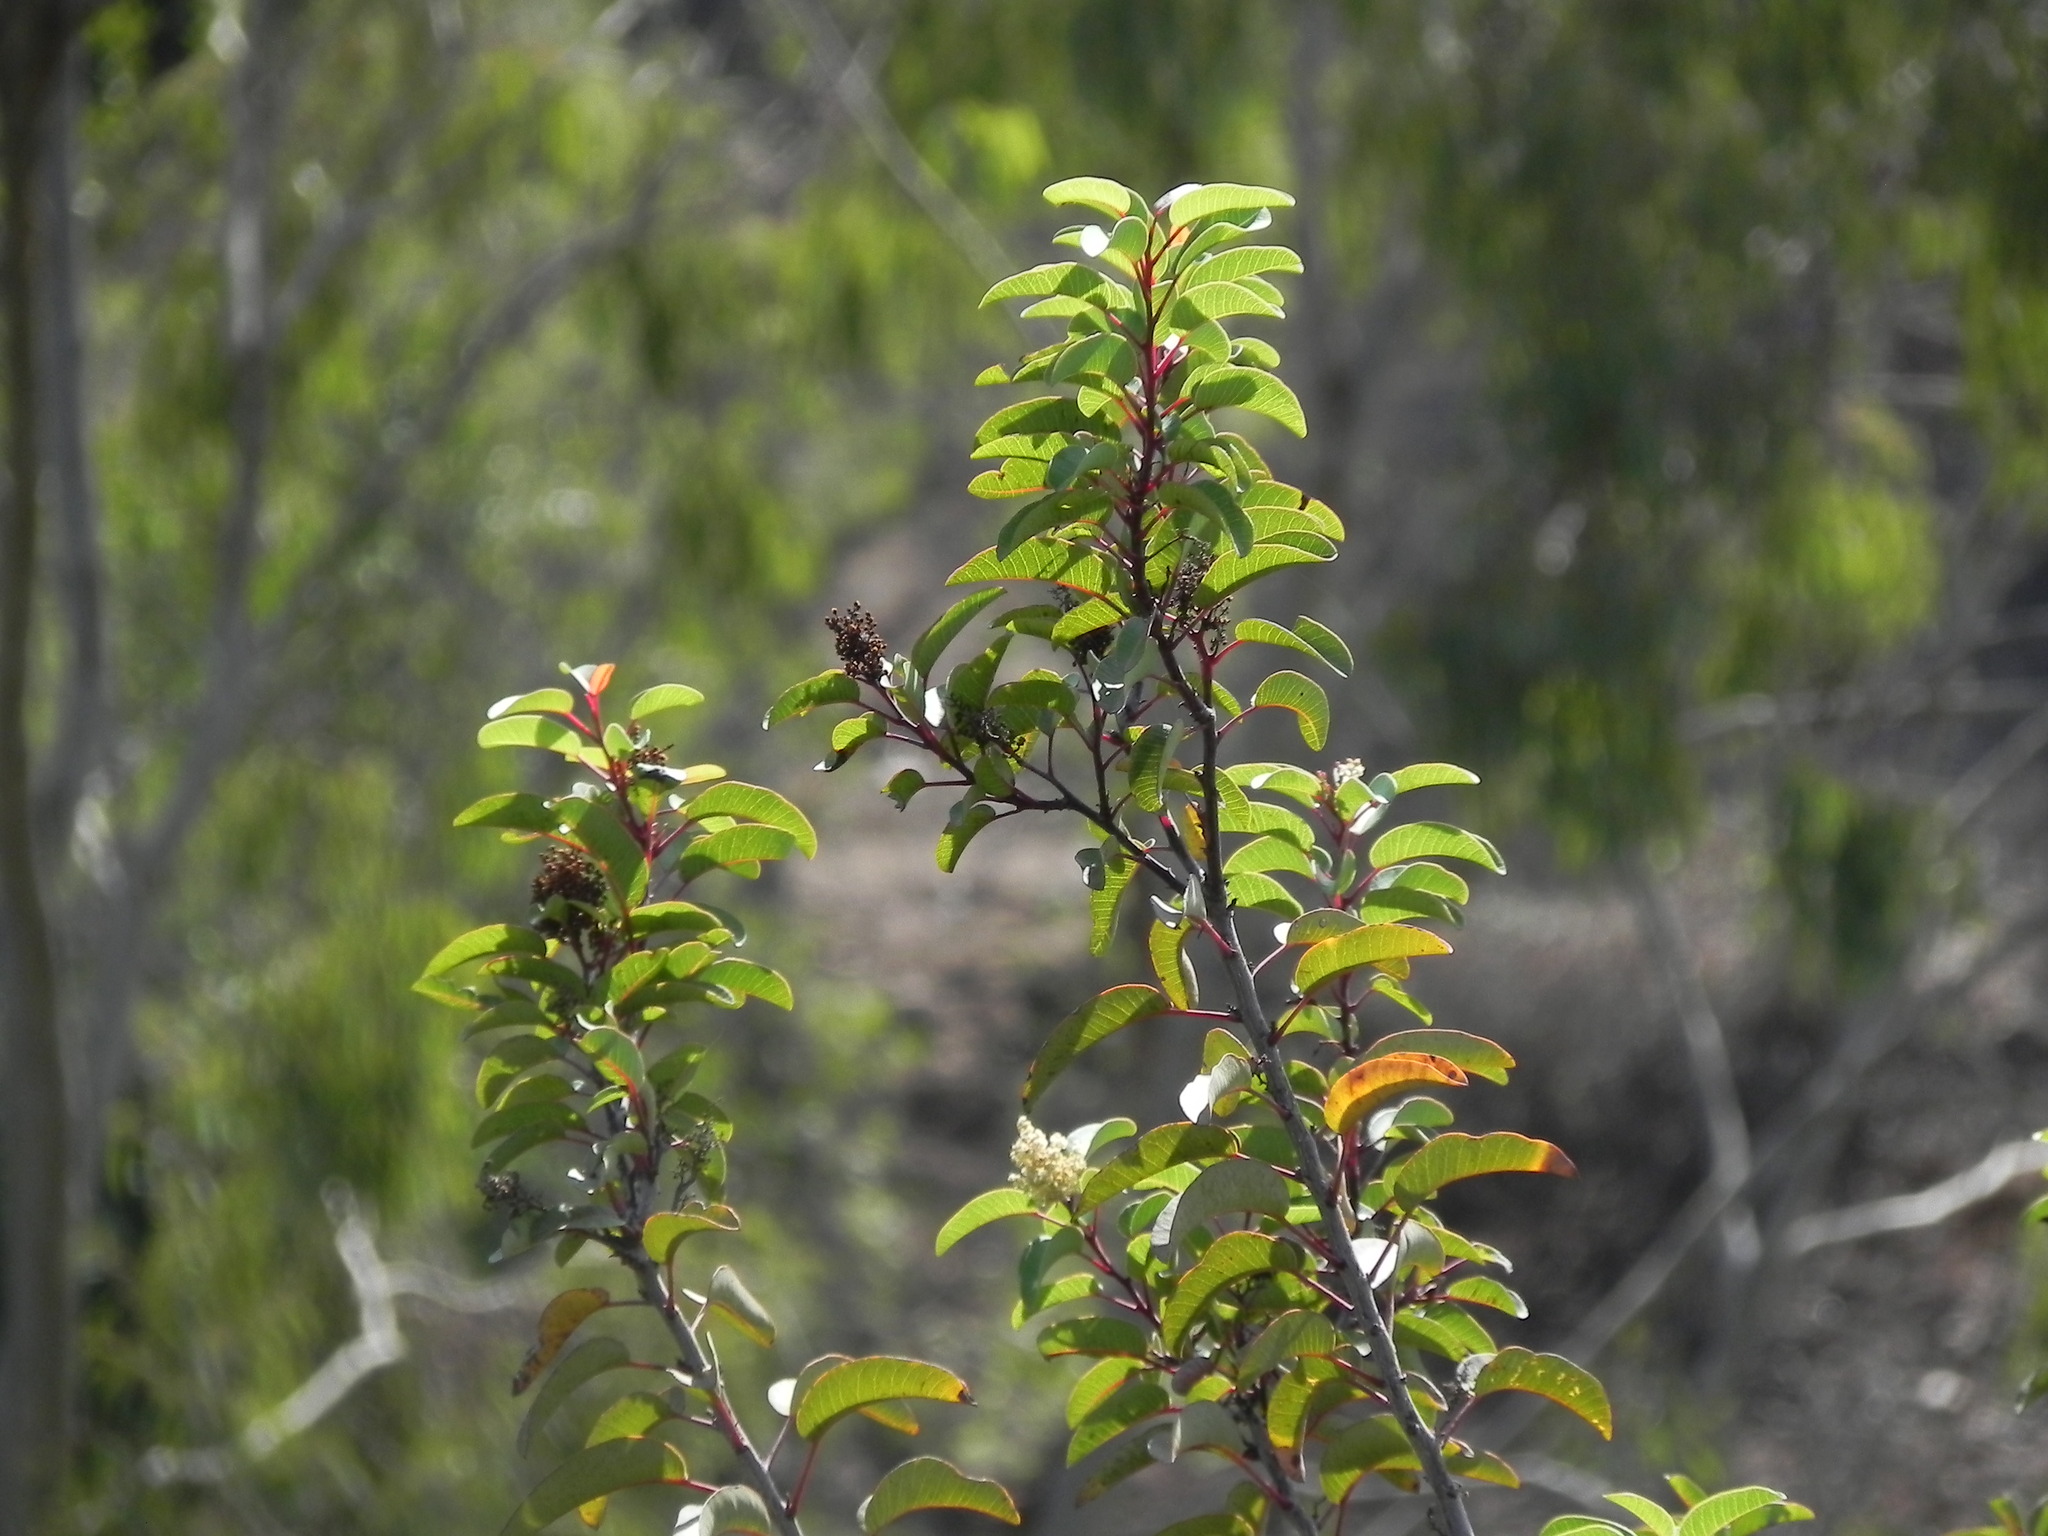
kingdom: Plantae
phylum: Tracheophyta
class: Magnoliopsida
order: Sapindales
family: Anacardiaceae
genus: Malosma
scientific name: Malosma laurina
